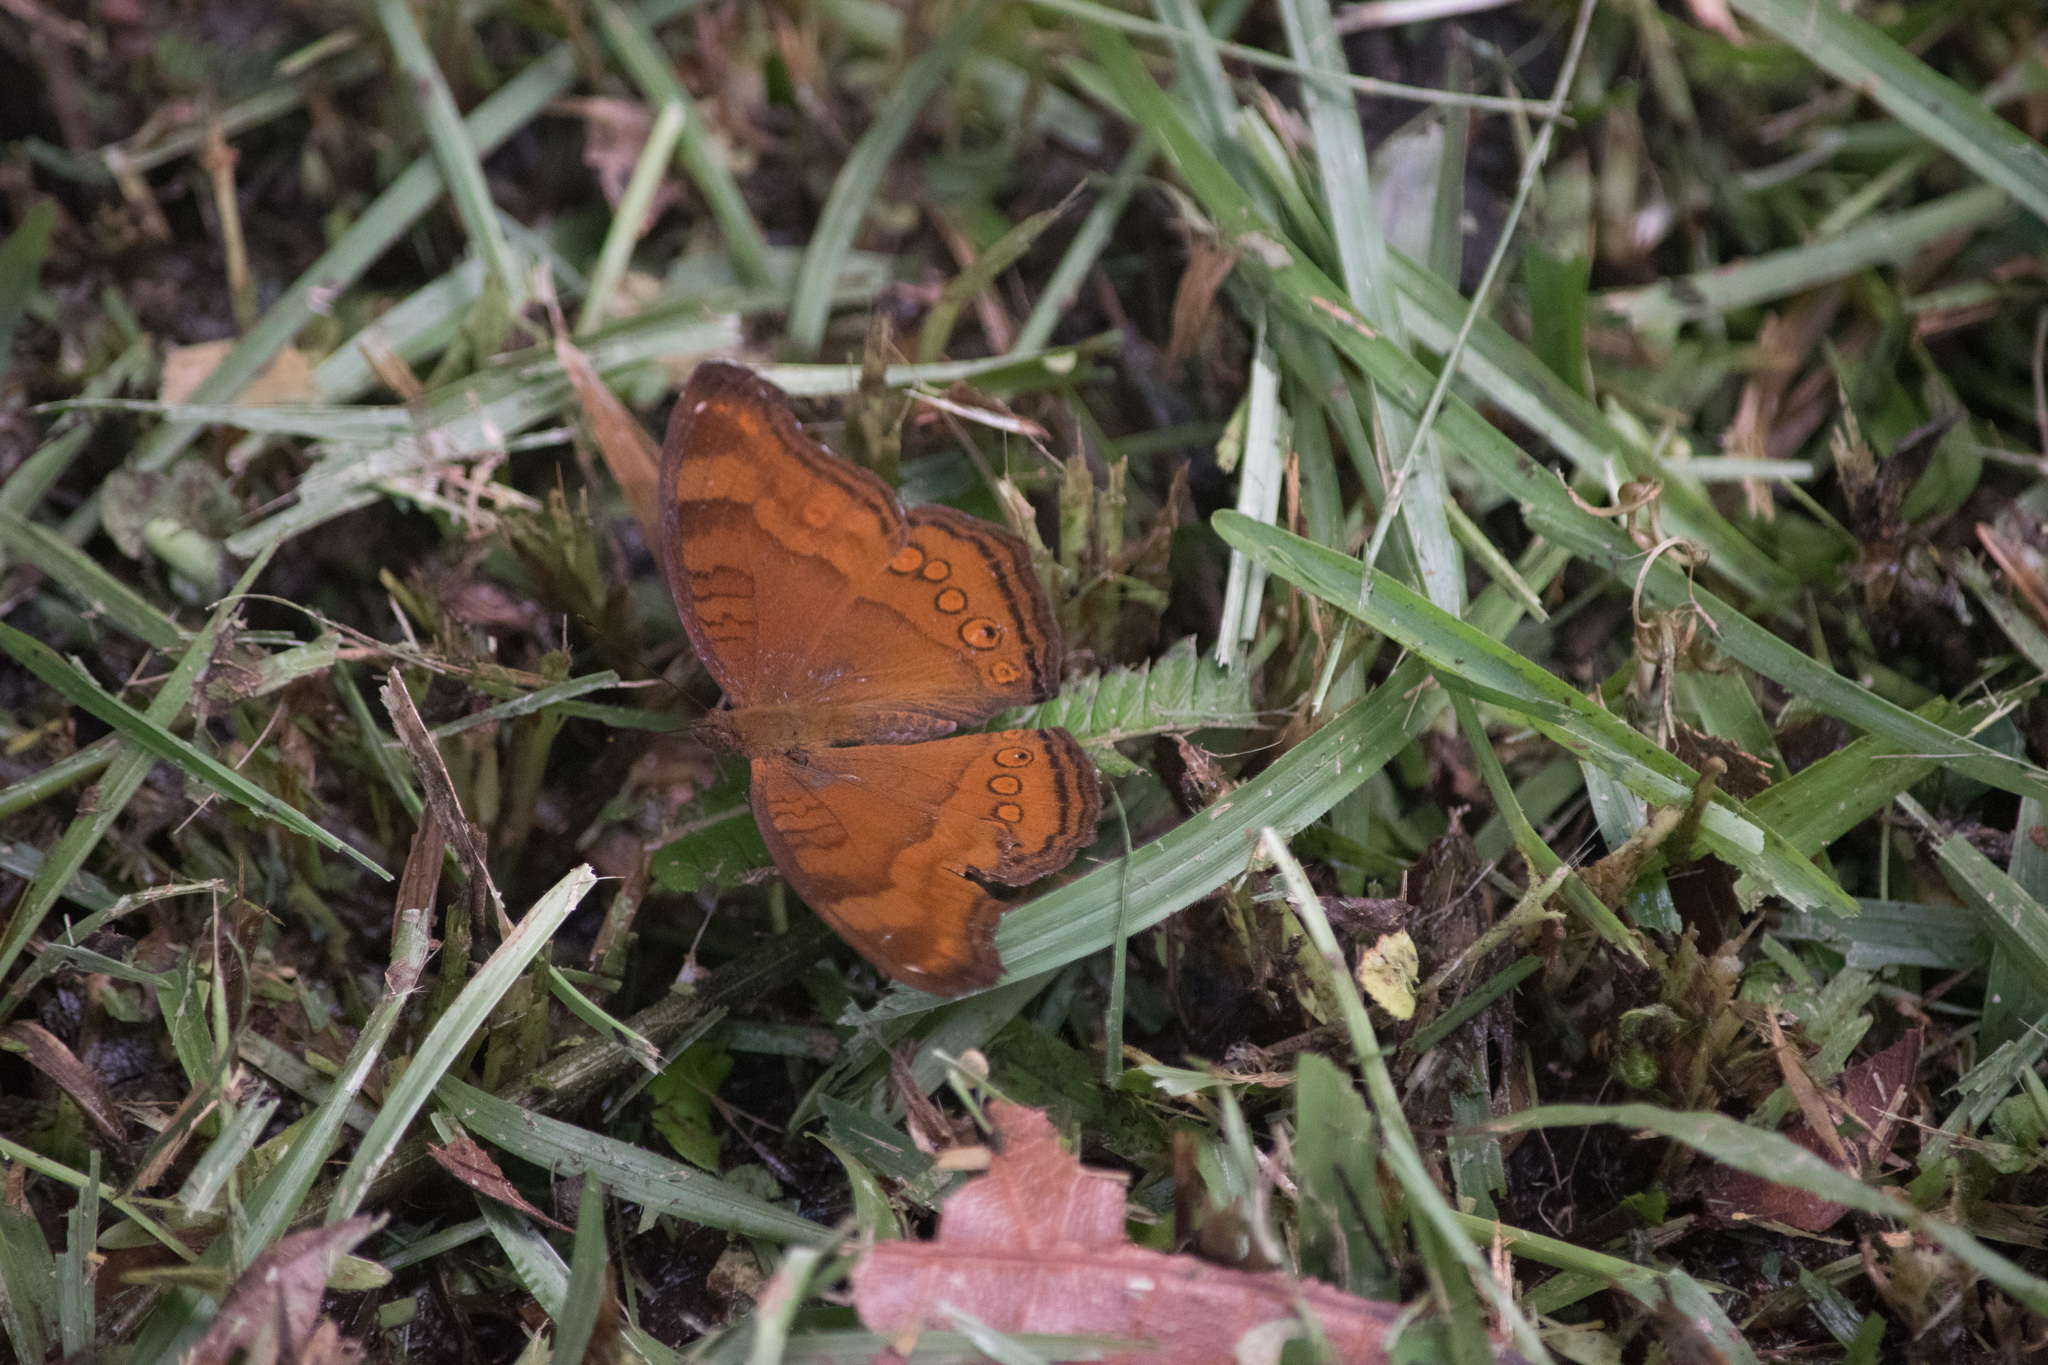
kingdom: Animalia
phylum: Arthropoda
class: Insecta
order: Lepidoptera
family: Nymphalidae
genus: Junonia
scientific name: Junonia hedonia
